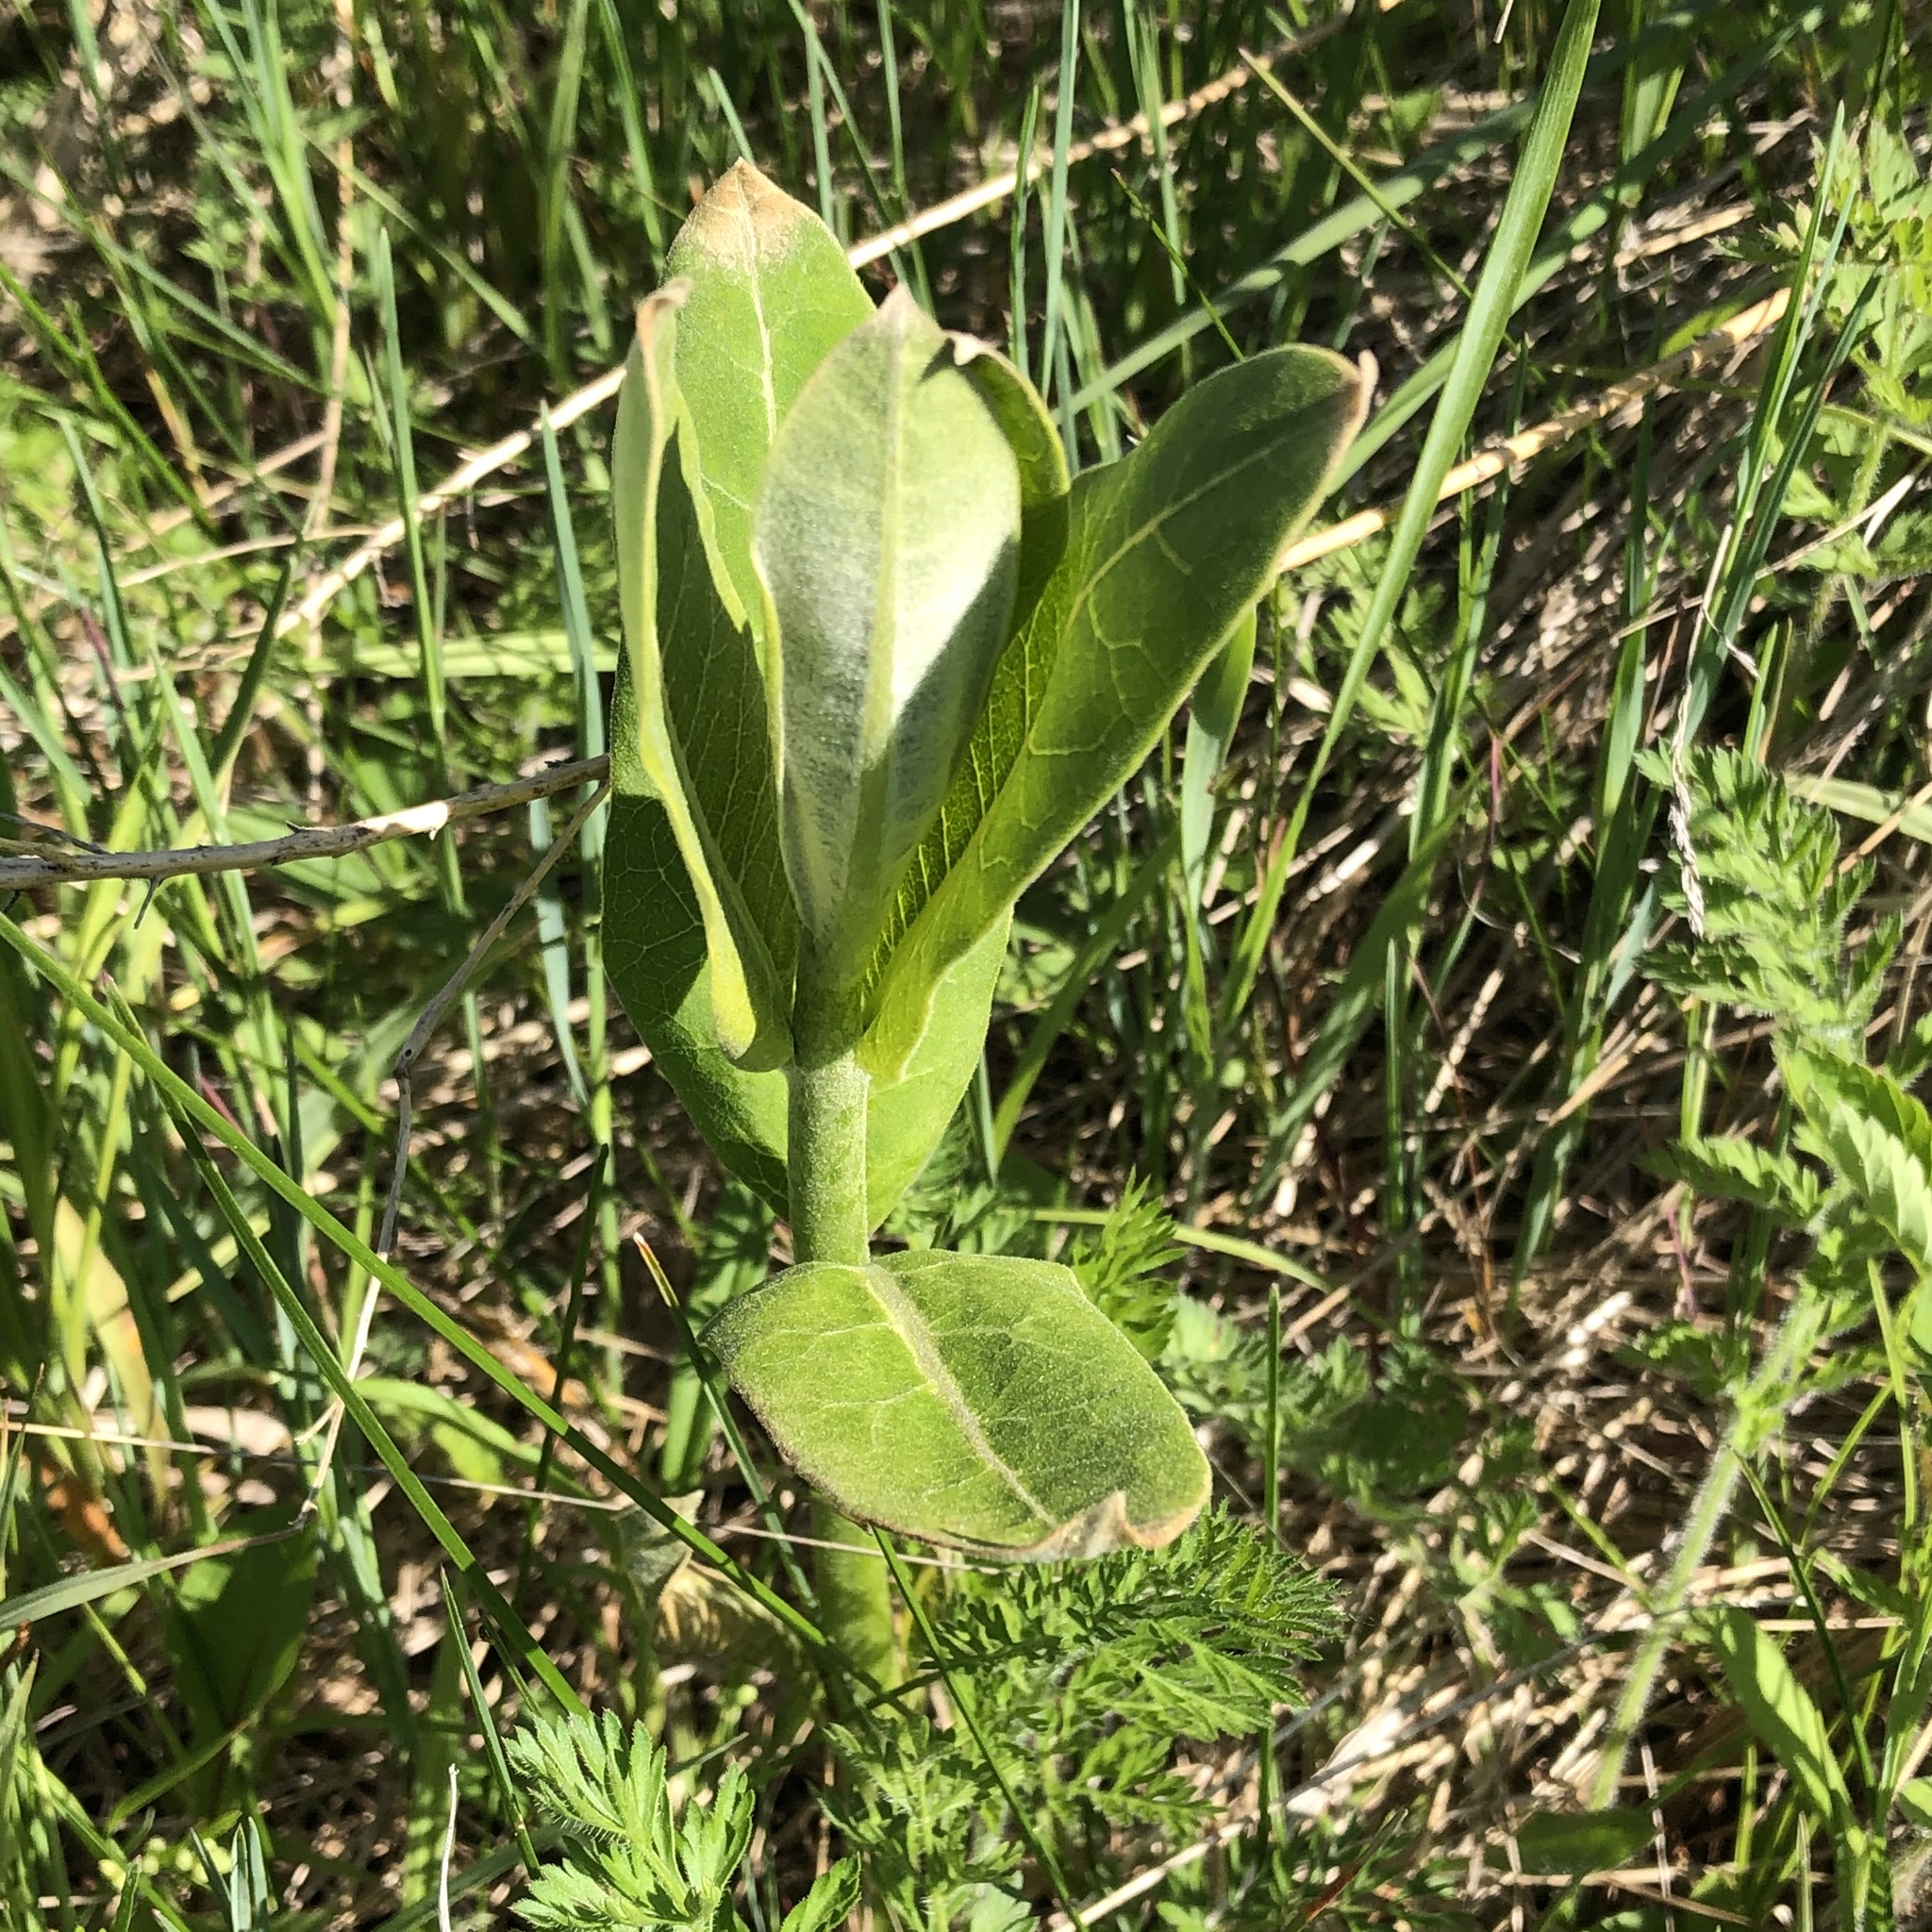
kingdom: Plantae
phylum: Tracheophyta
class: Magnoliopsida
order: Gentianales
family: Apocynaceae
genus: Asclepias
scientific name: Asclepias syriaca
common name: Common milkweed
